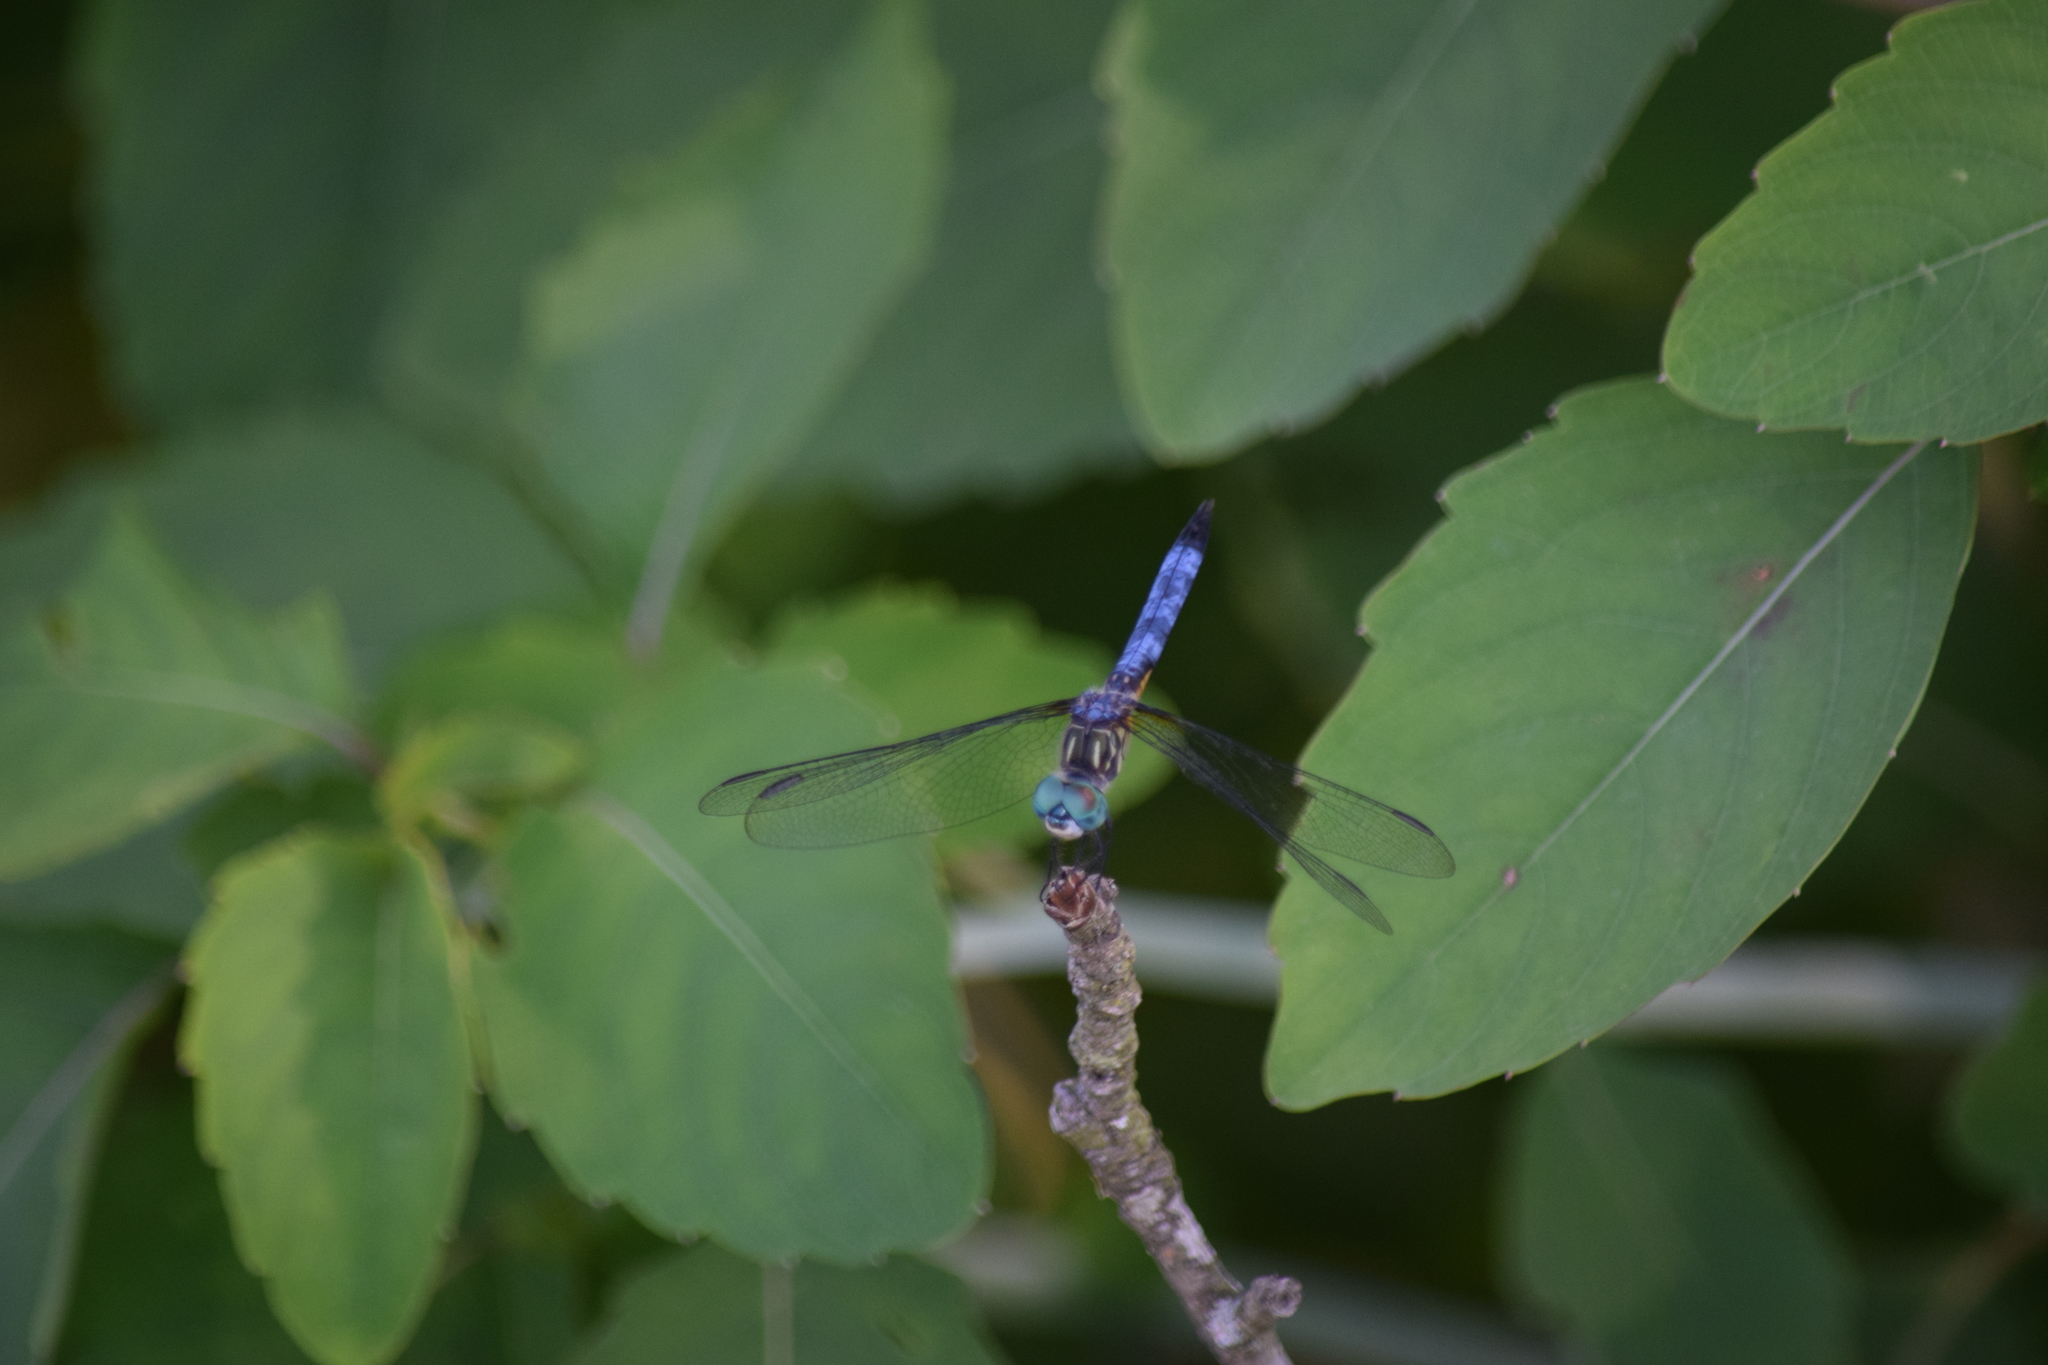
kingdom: Animalia
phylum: Arthropoda
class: Insecta
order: Odonata
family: Libellulidae
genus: Pachydiplax
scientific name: Pachydiplax longipennis
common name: Blue dasher
